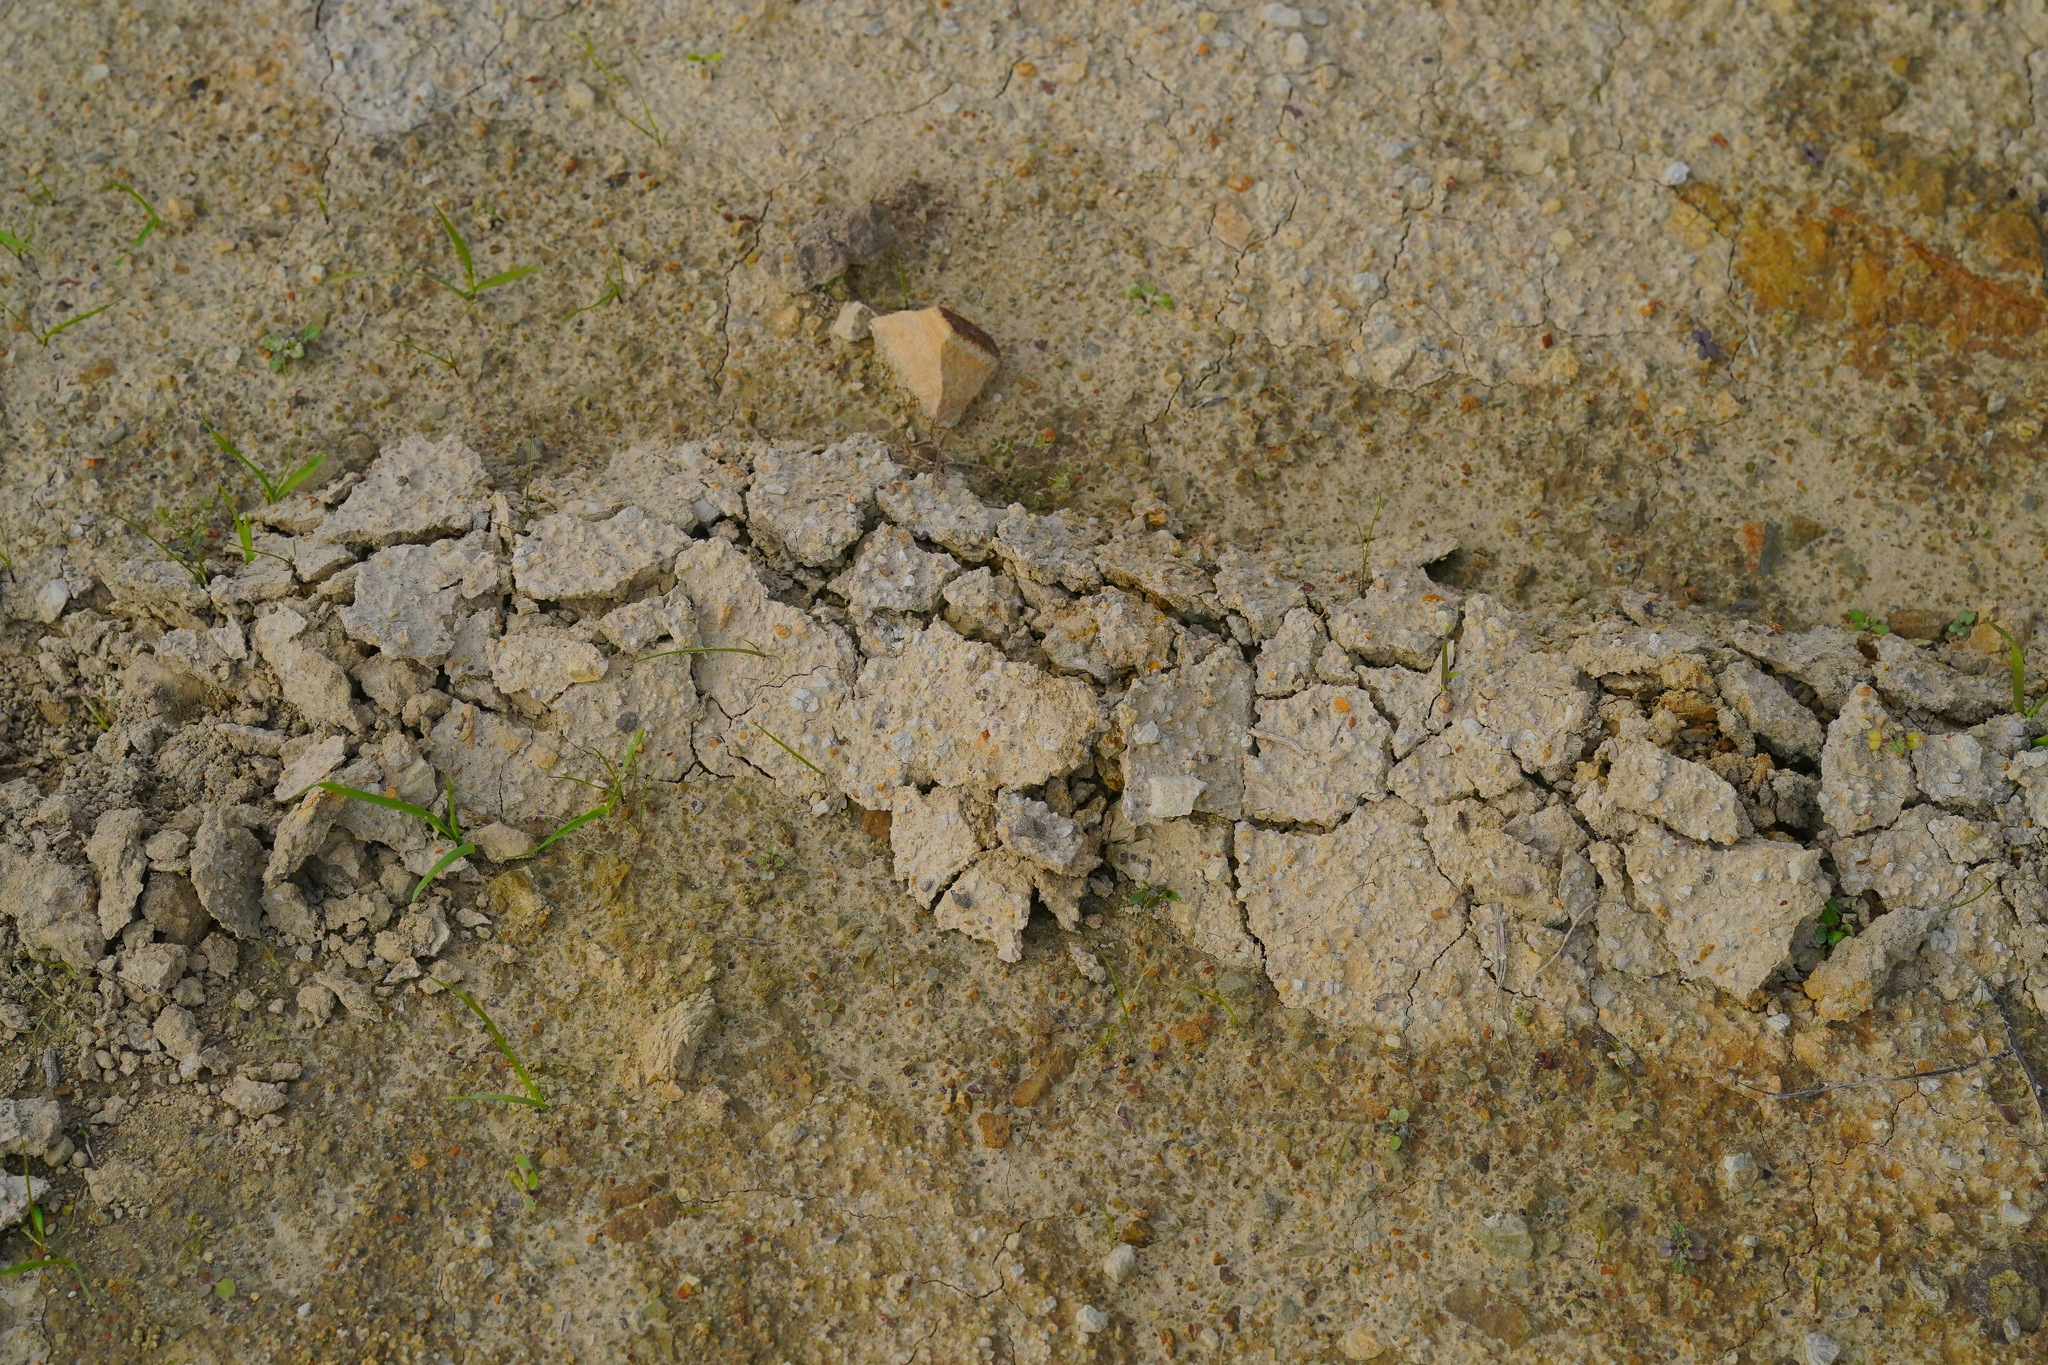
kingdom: Animalia
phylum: Chordata
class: Mammalia
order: Soricomorpha
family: Talpidae
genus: Scapanus
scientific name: Scapanus latimanus
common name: Broad-footed mole
